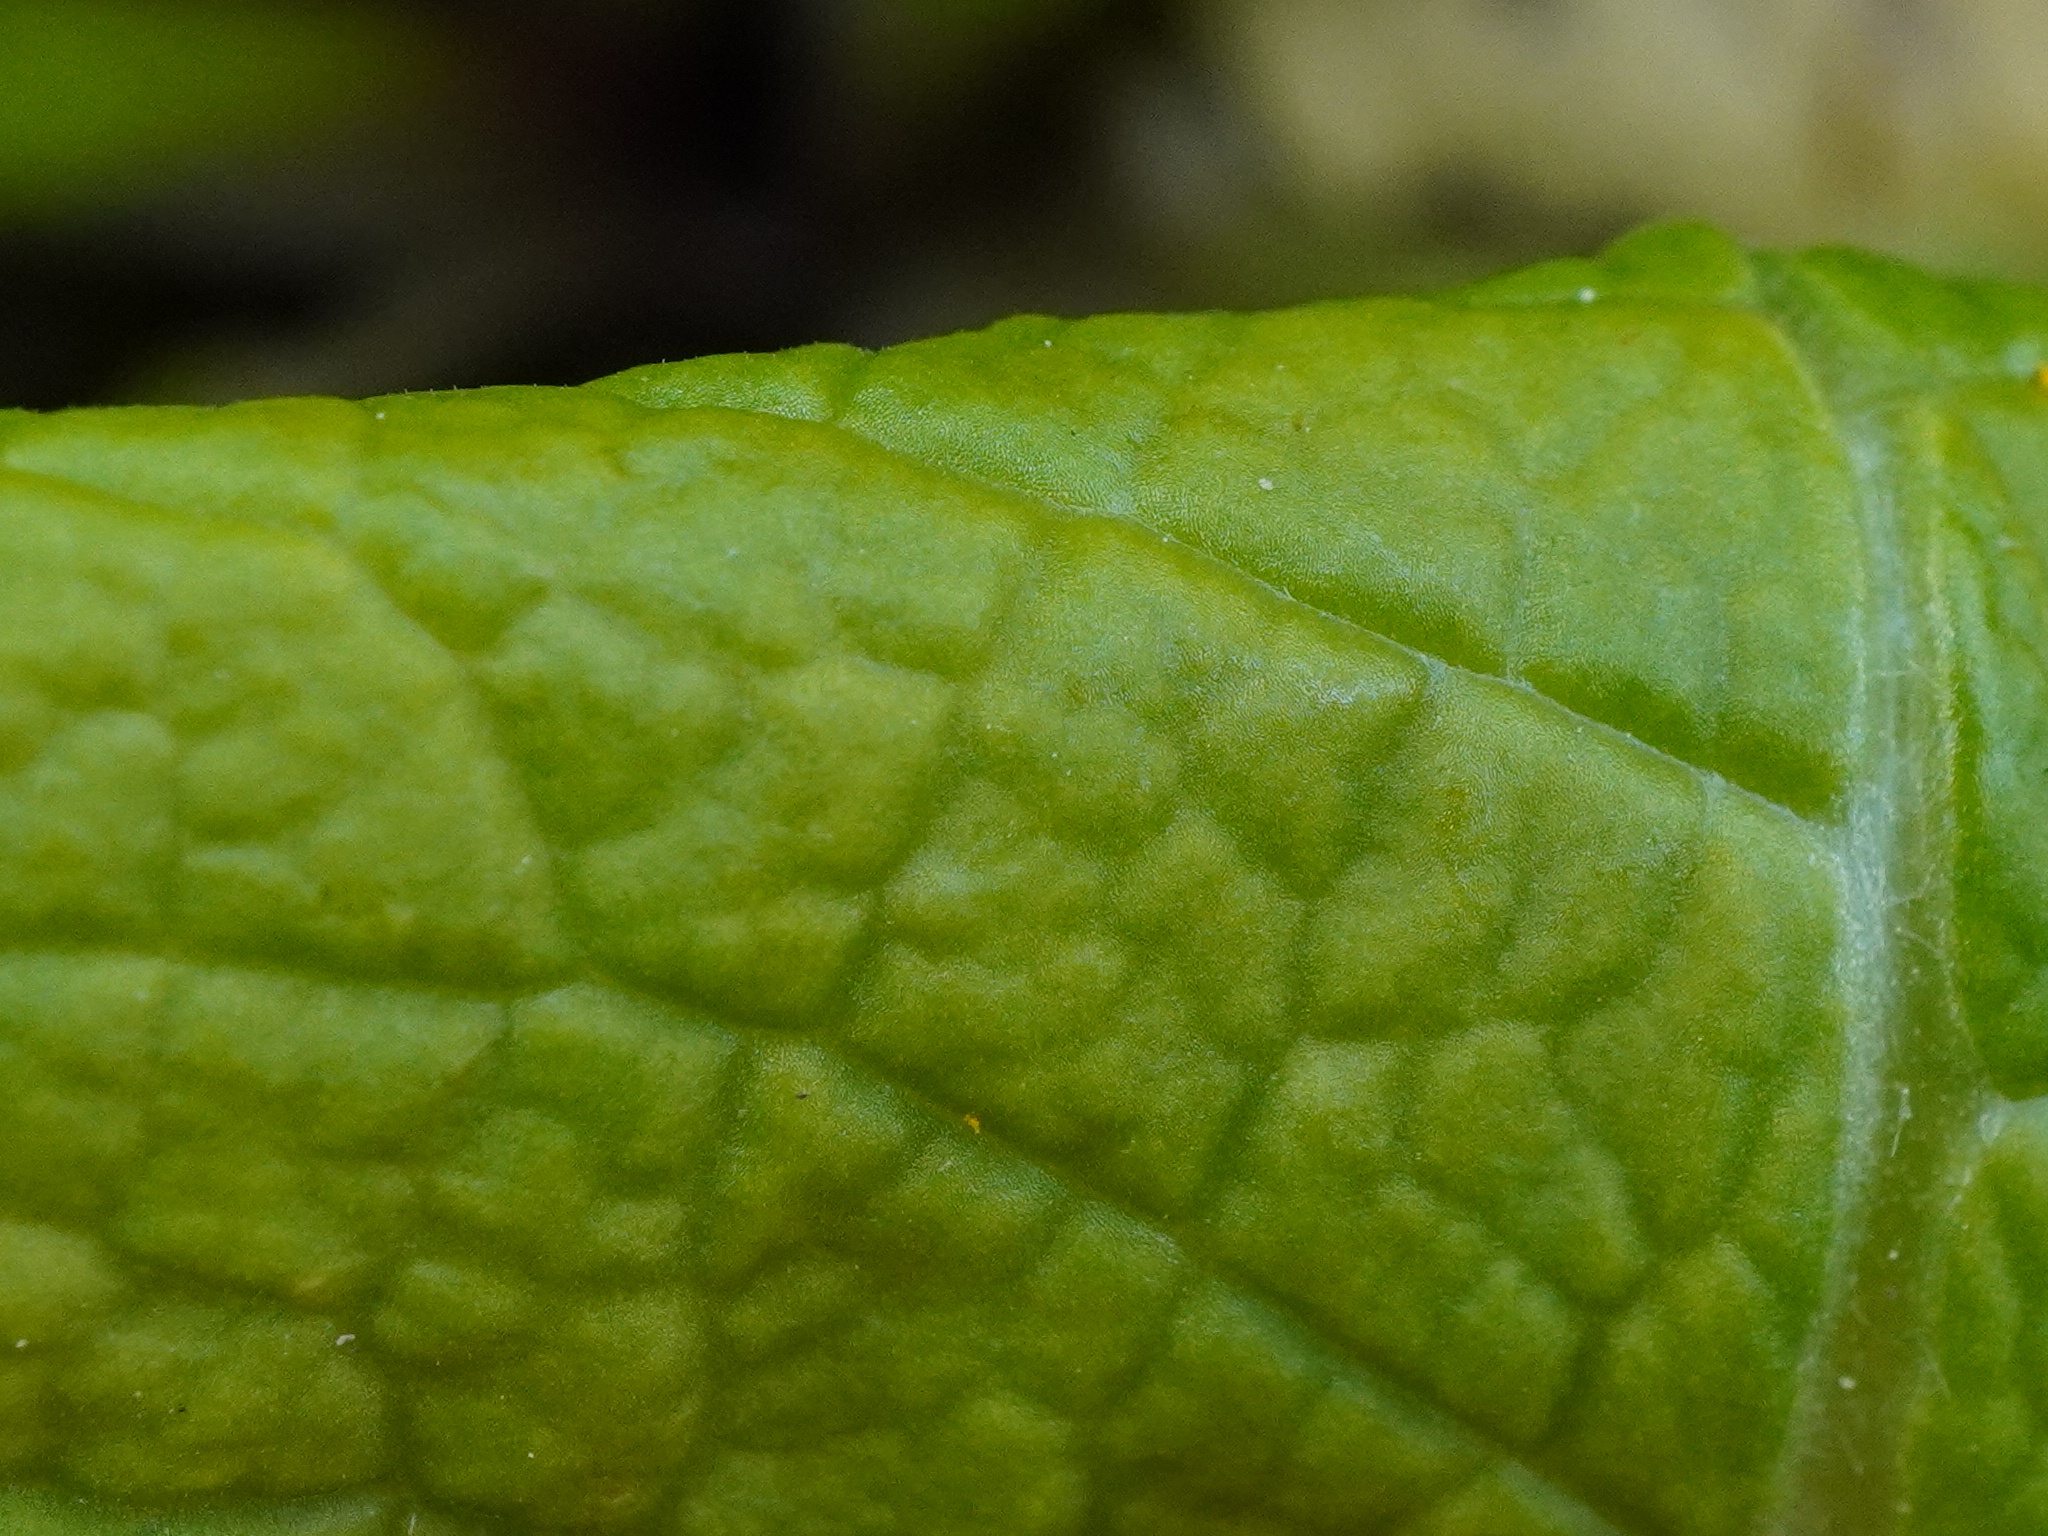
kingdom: Plantae
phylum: Tracheophyta
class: Magnoliopsida
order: Ericales
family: Primulaceae
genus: Primula
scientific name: Primula vulgaris
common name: Primrose
